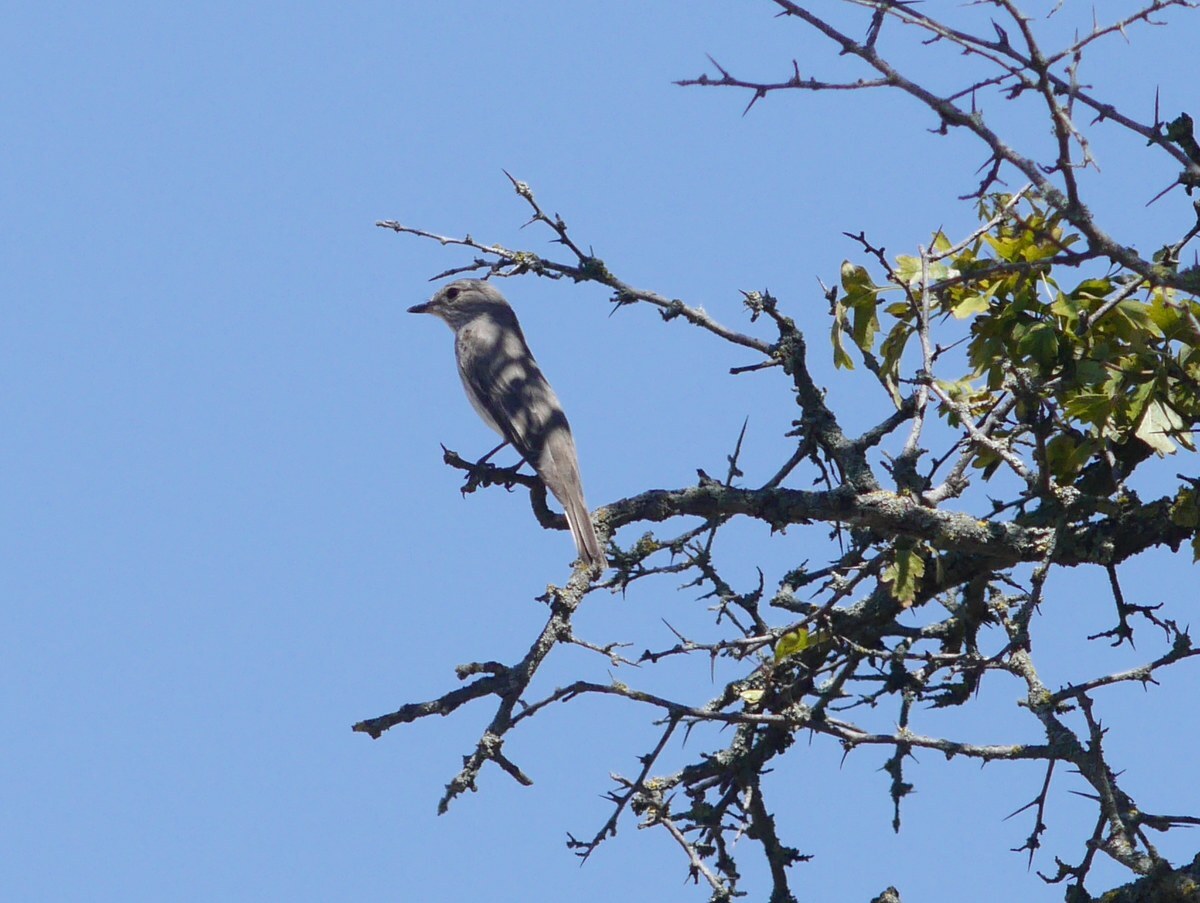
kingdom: Animalia
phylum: Chordata
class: Aves
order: Passeriformes
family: Muscicapidae
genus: Muscicapa
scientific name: Muscicapa striata
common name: Spotted flycatcher
